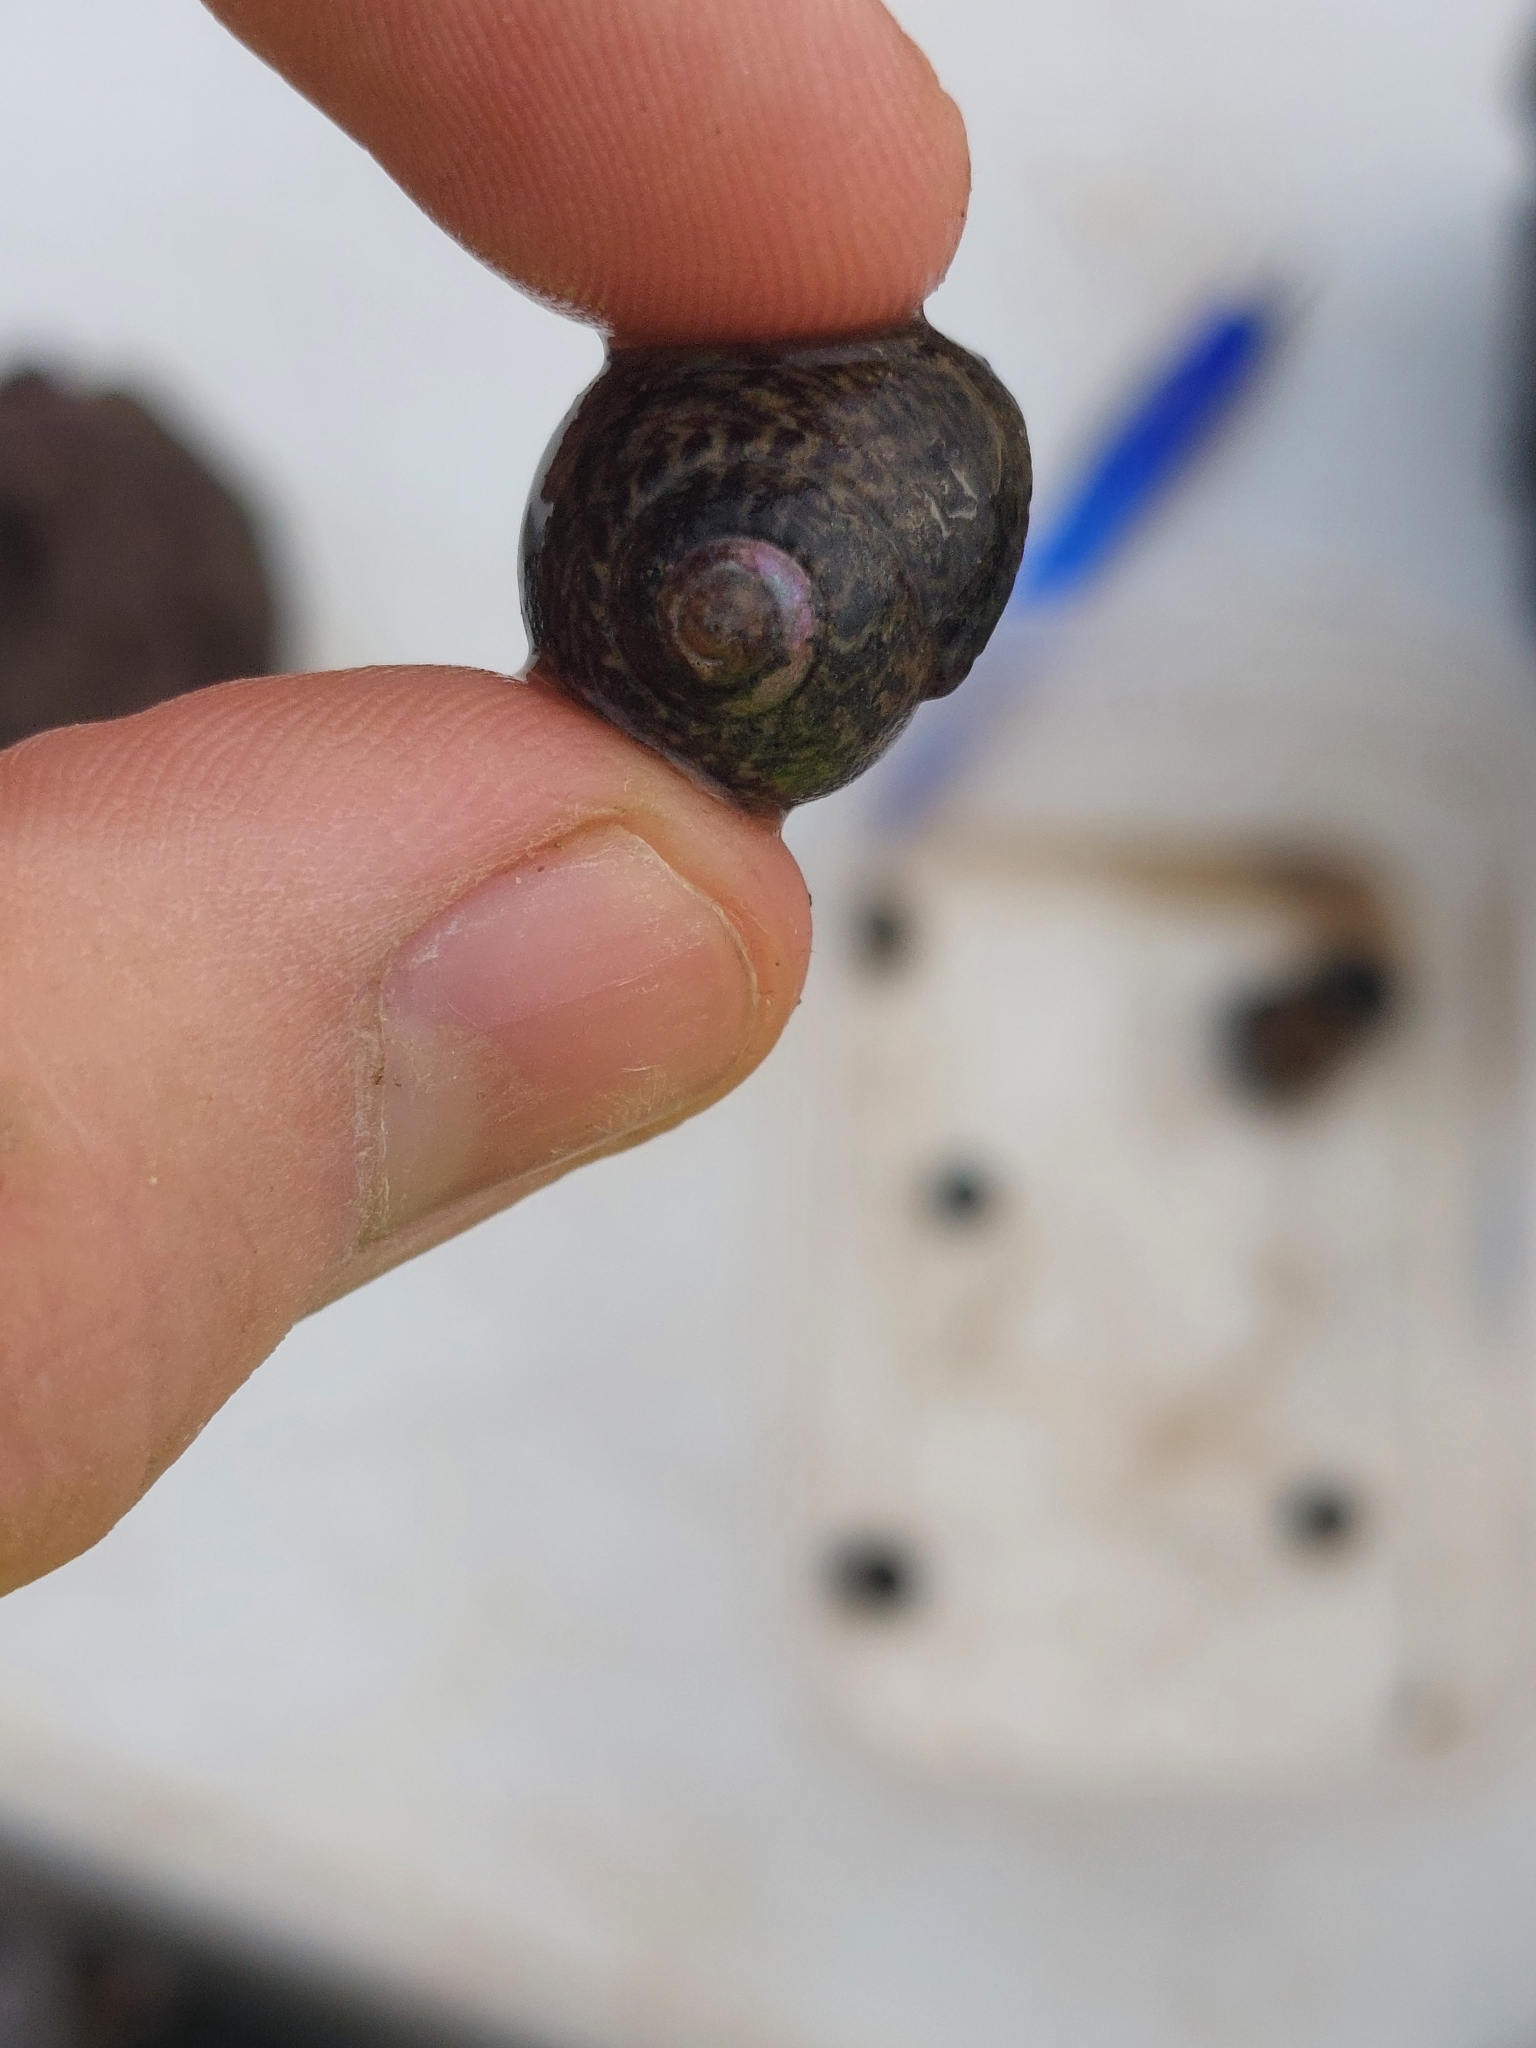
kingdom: Animalia
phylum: Mollusca
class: Gastropoda
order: Trochida
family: Trochidae
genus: Phorcus
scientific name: Phorcus lineatus
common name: Toothed top shell
